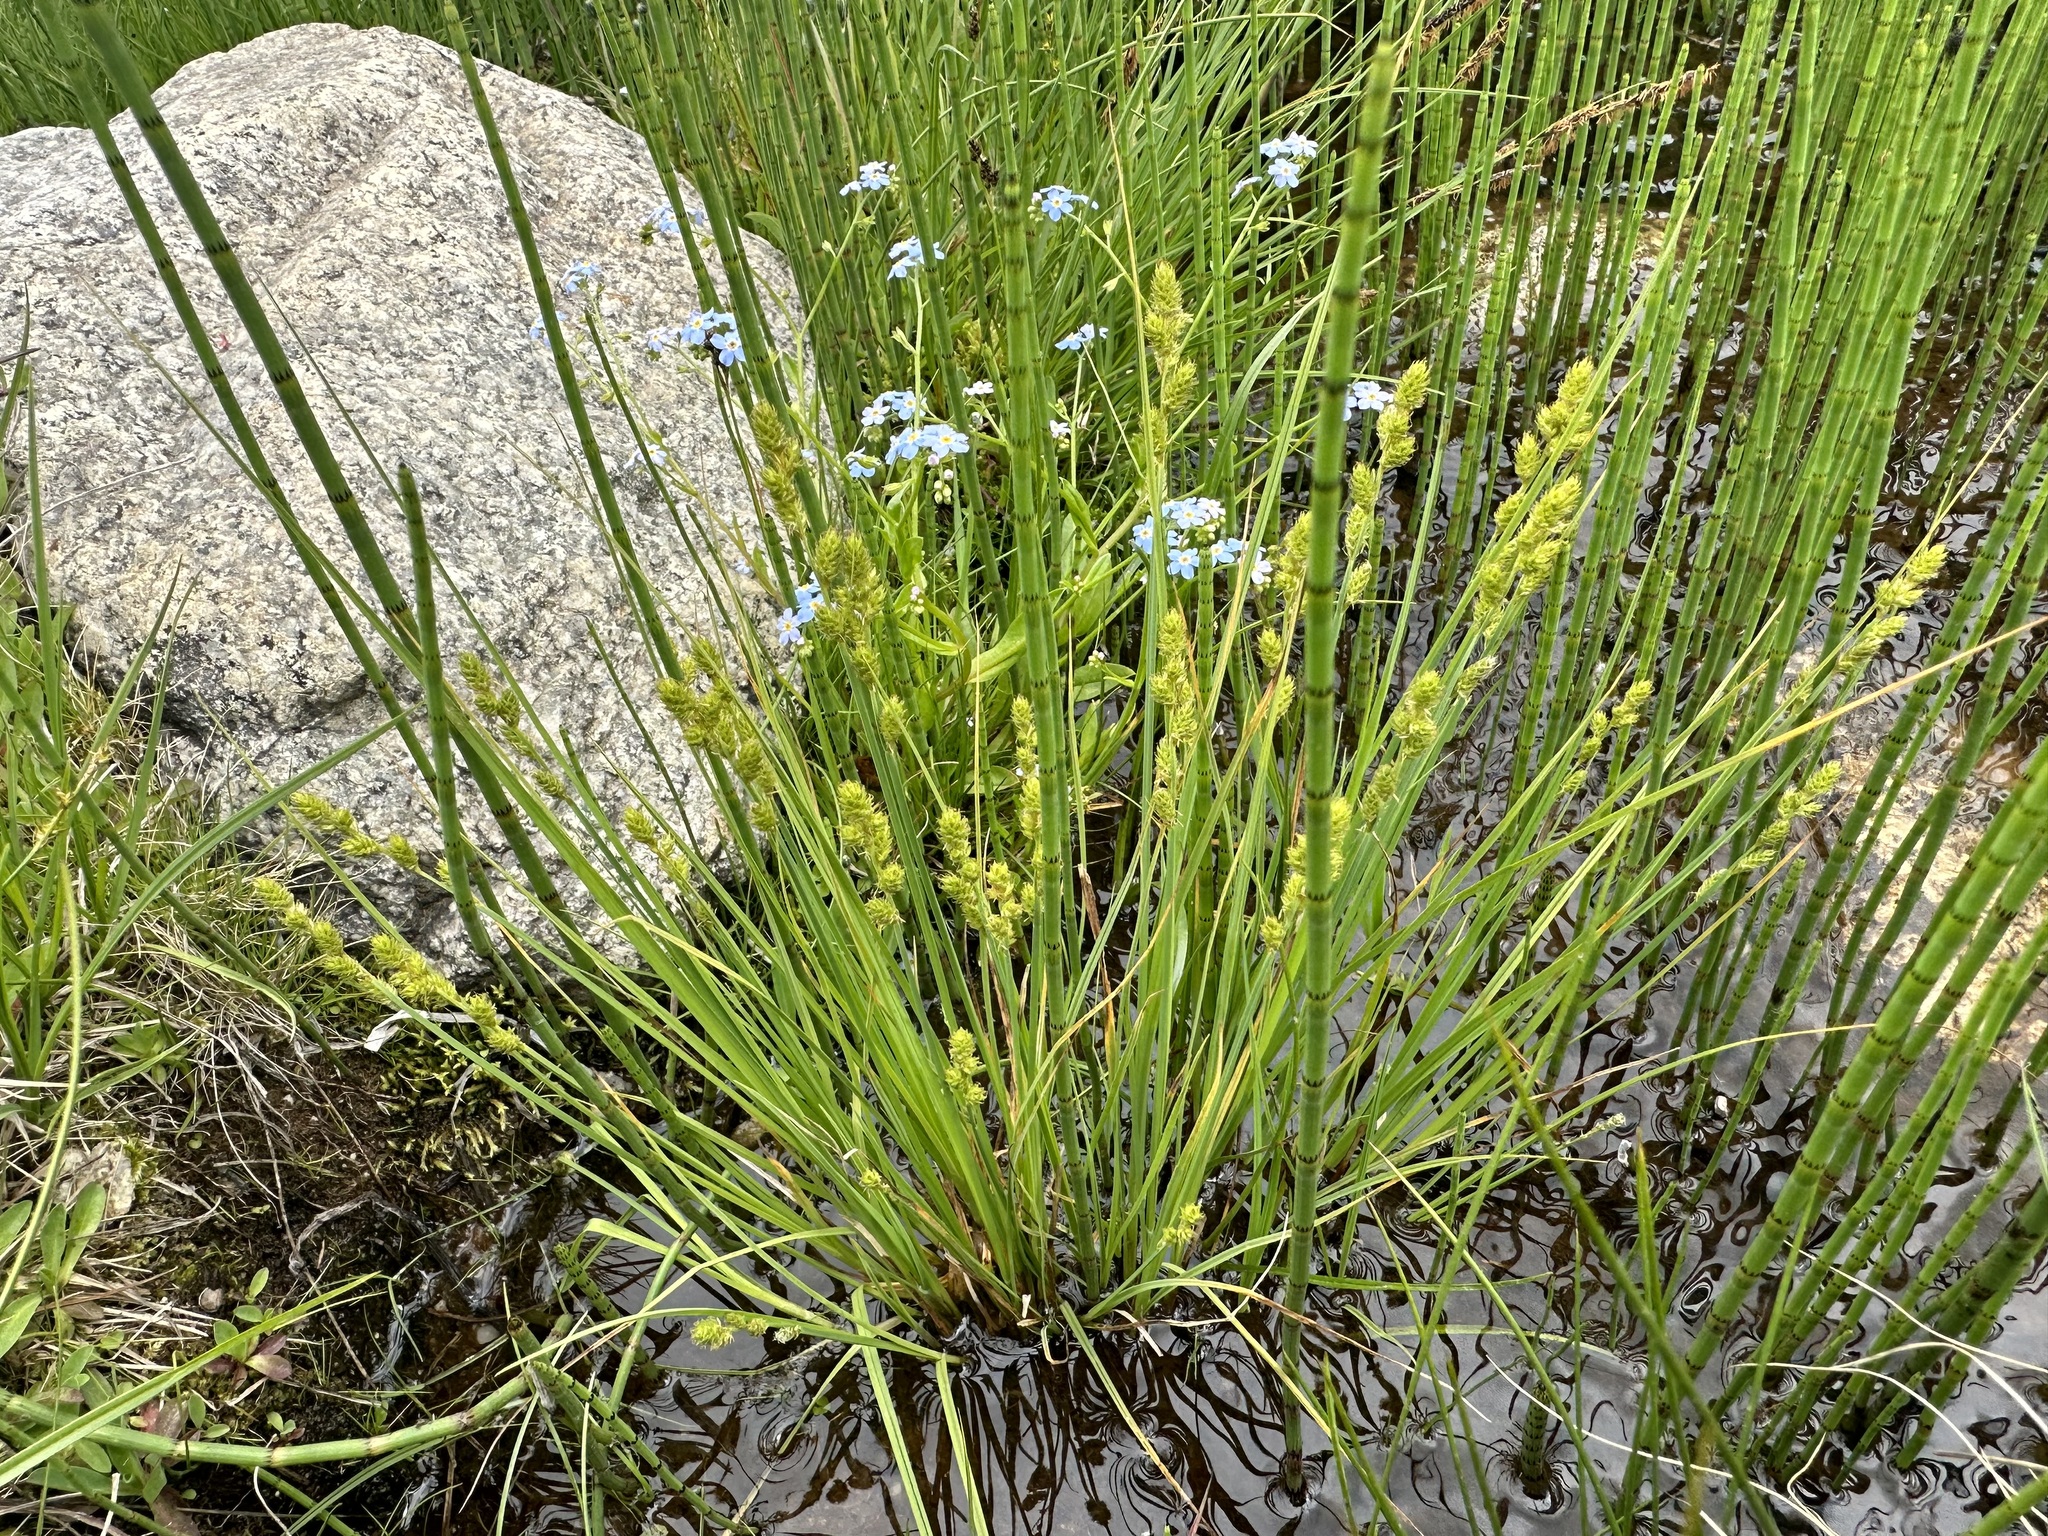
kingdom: Plantae
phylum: Tracheophyta
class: Liliopsida
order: Poales
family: Cyperaceae
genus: Carex
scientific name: Carex canescens
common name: White sedge
